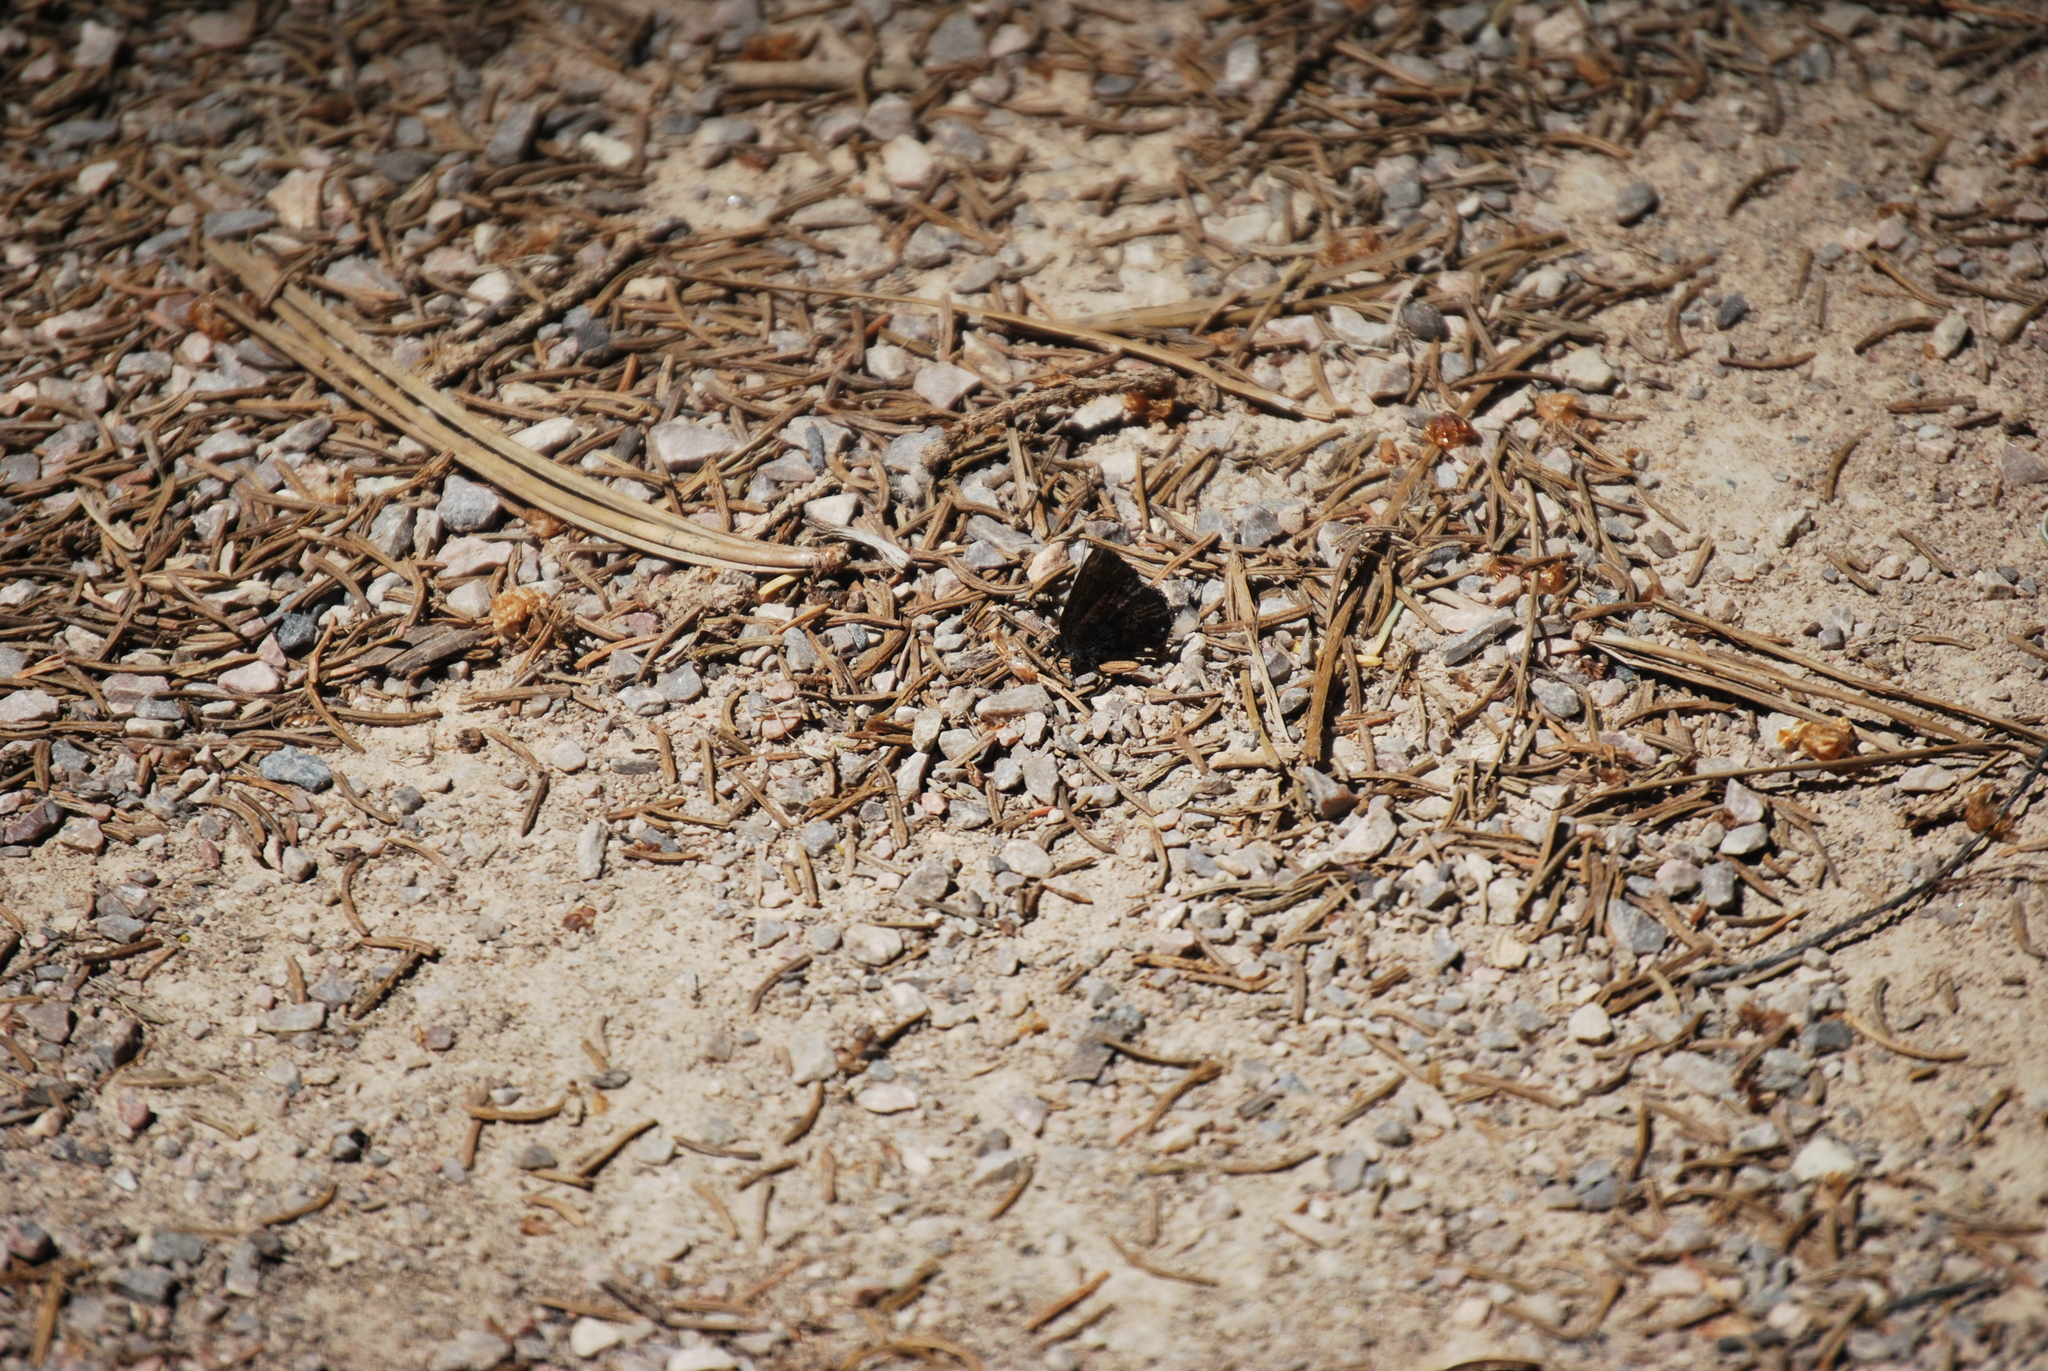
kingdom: Animalia
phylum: Arthropoda
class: Insecta
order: Lepidoptera
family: Lycaenidae
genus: Callophrys
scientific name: Callophrys polios
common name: Hoary elfin
